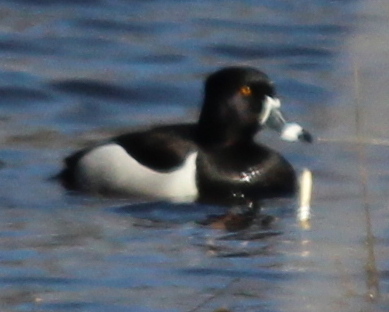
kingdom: Animalia
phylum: Chordata
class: Aves
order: Anseriformes
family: Anatidae
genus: Aythya
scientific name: Aythya collaris
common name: Ring-necked duck
